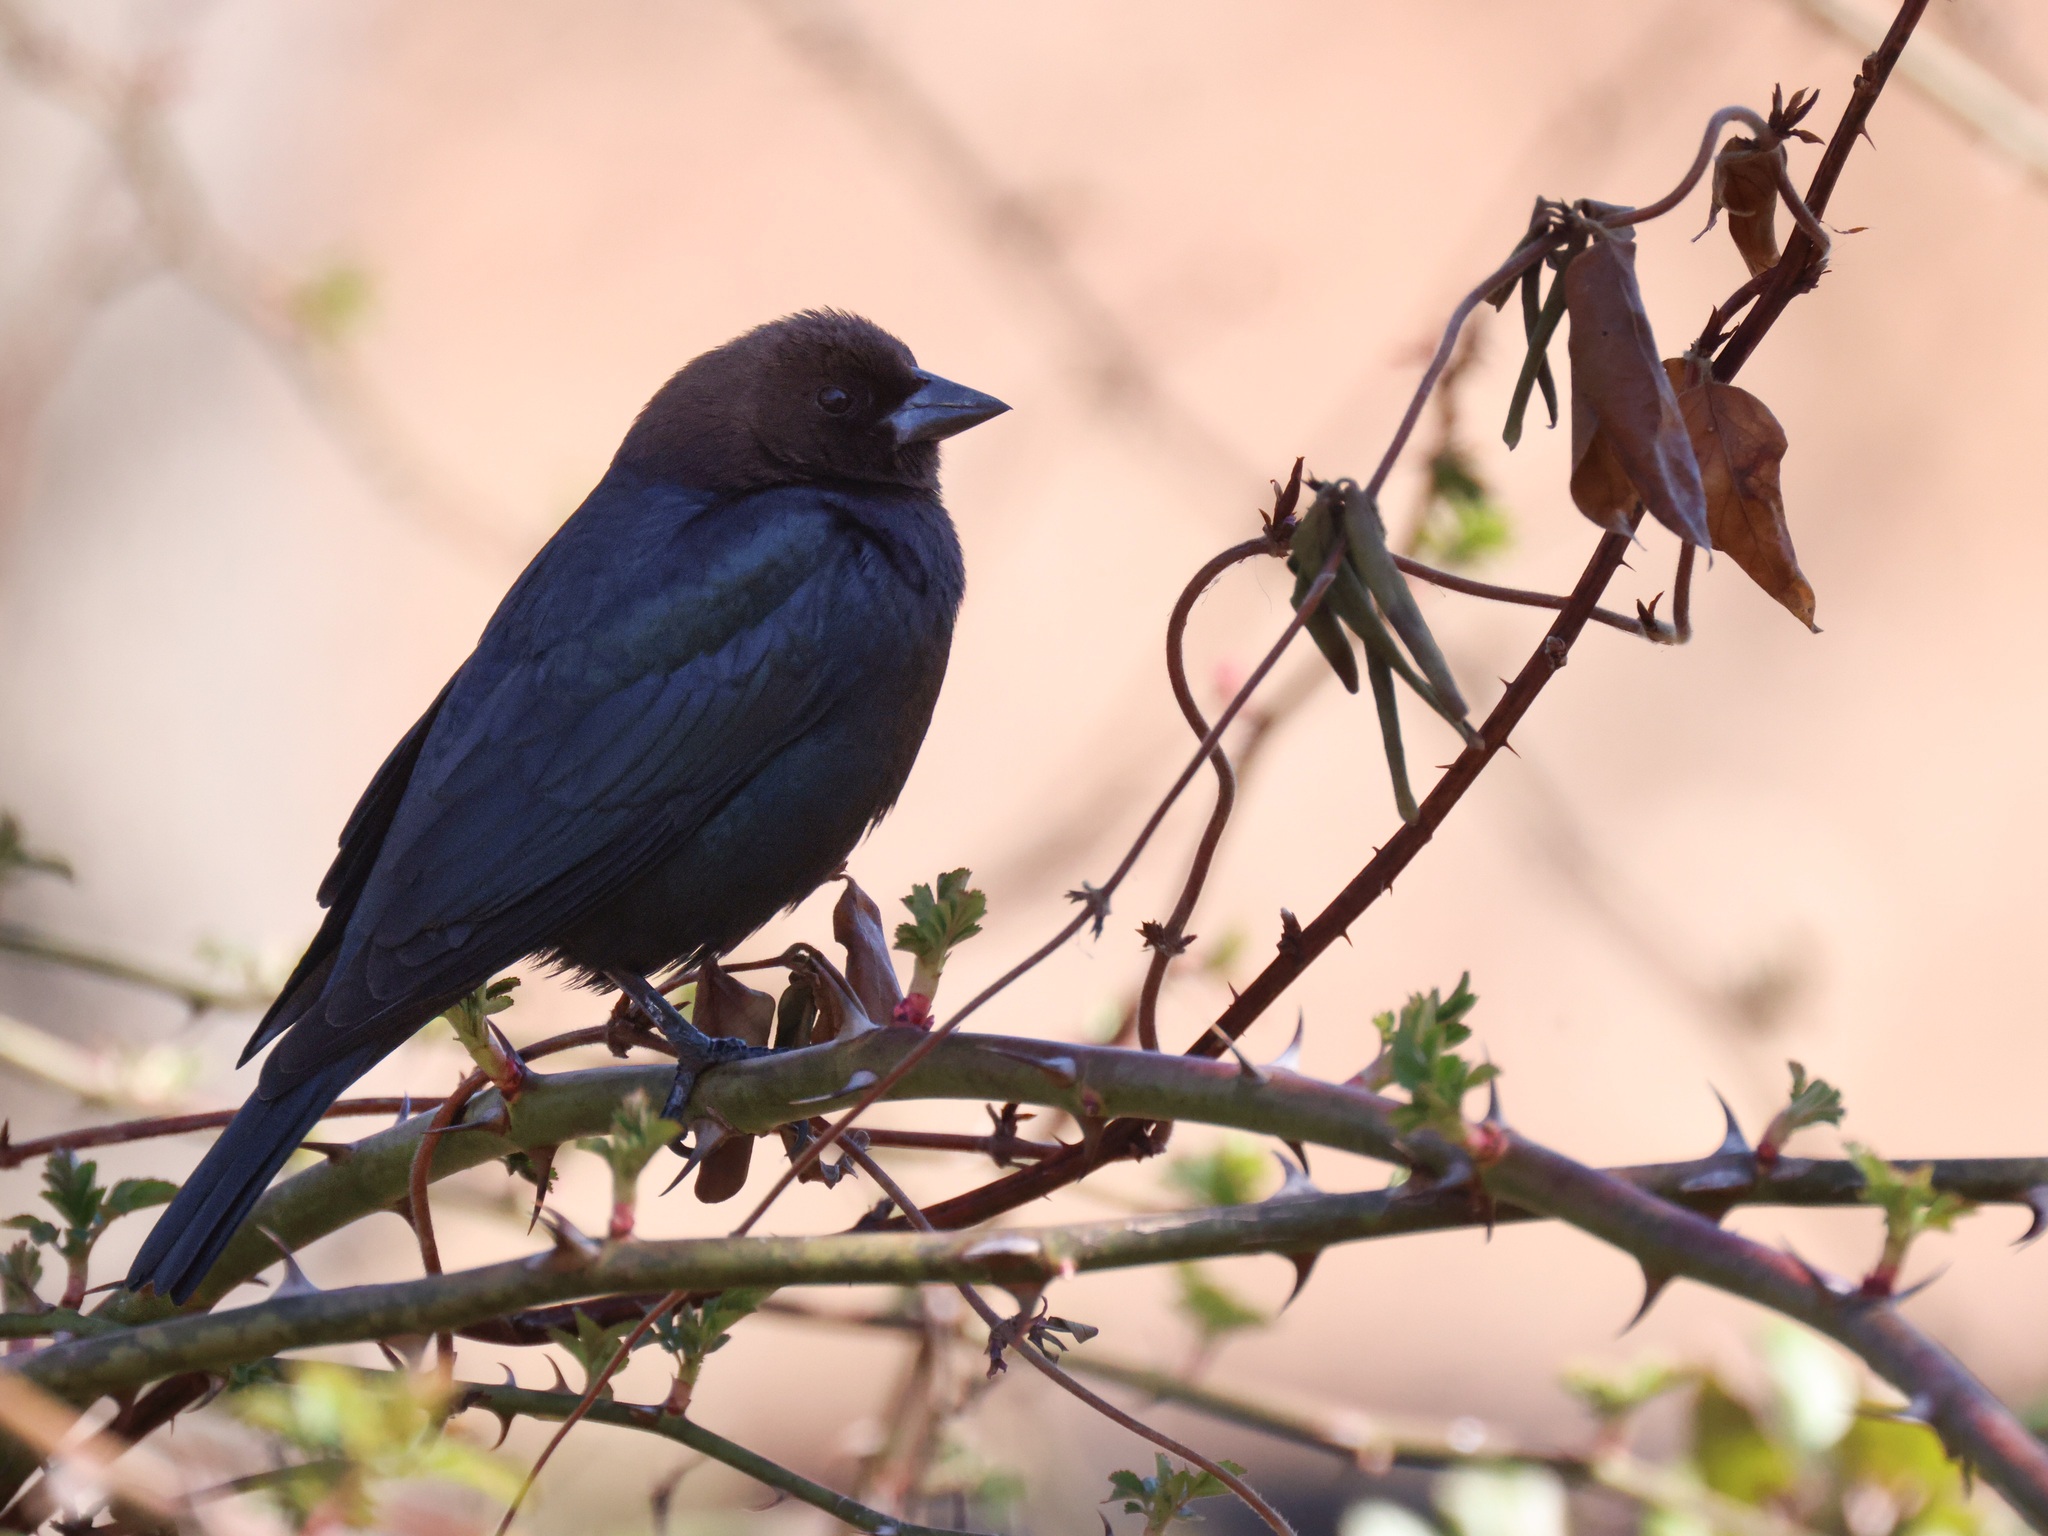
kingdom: Animalia
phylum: Chordata
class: Aves
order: Passeriformes
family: Icteridae
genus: Molothrus
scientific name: Molothrus ater
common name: Brown-headed cowbird
